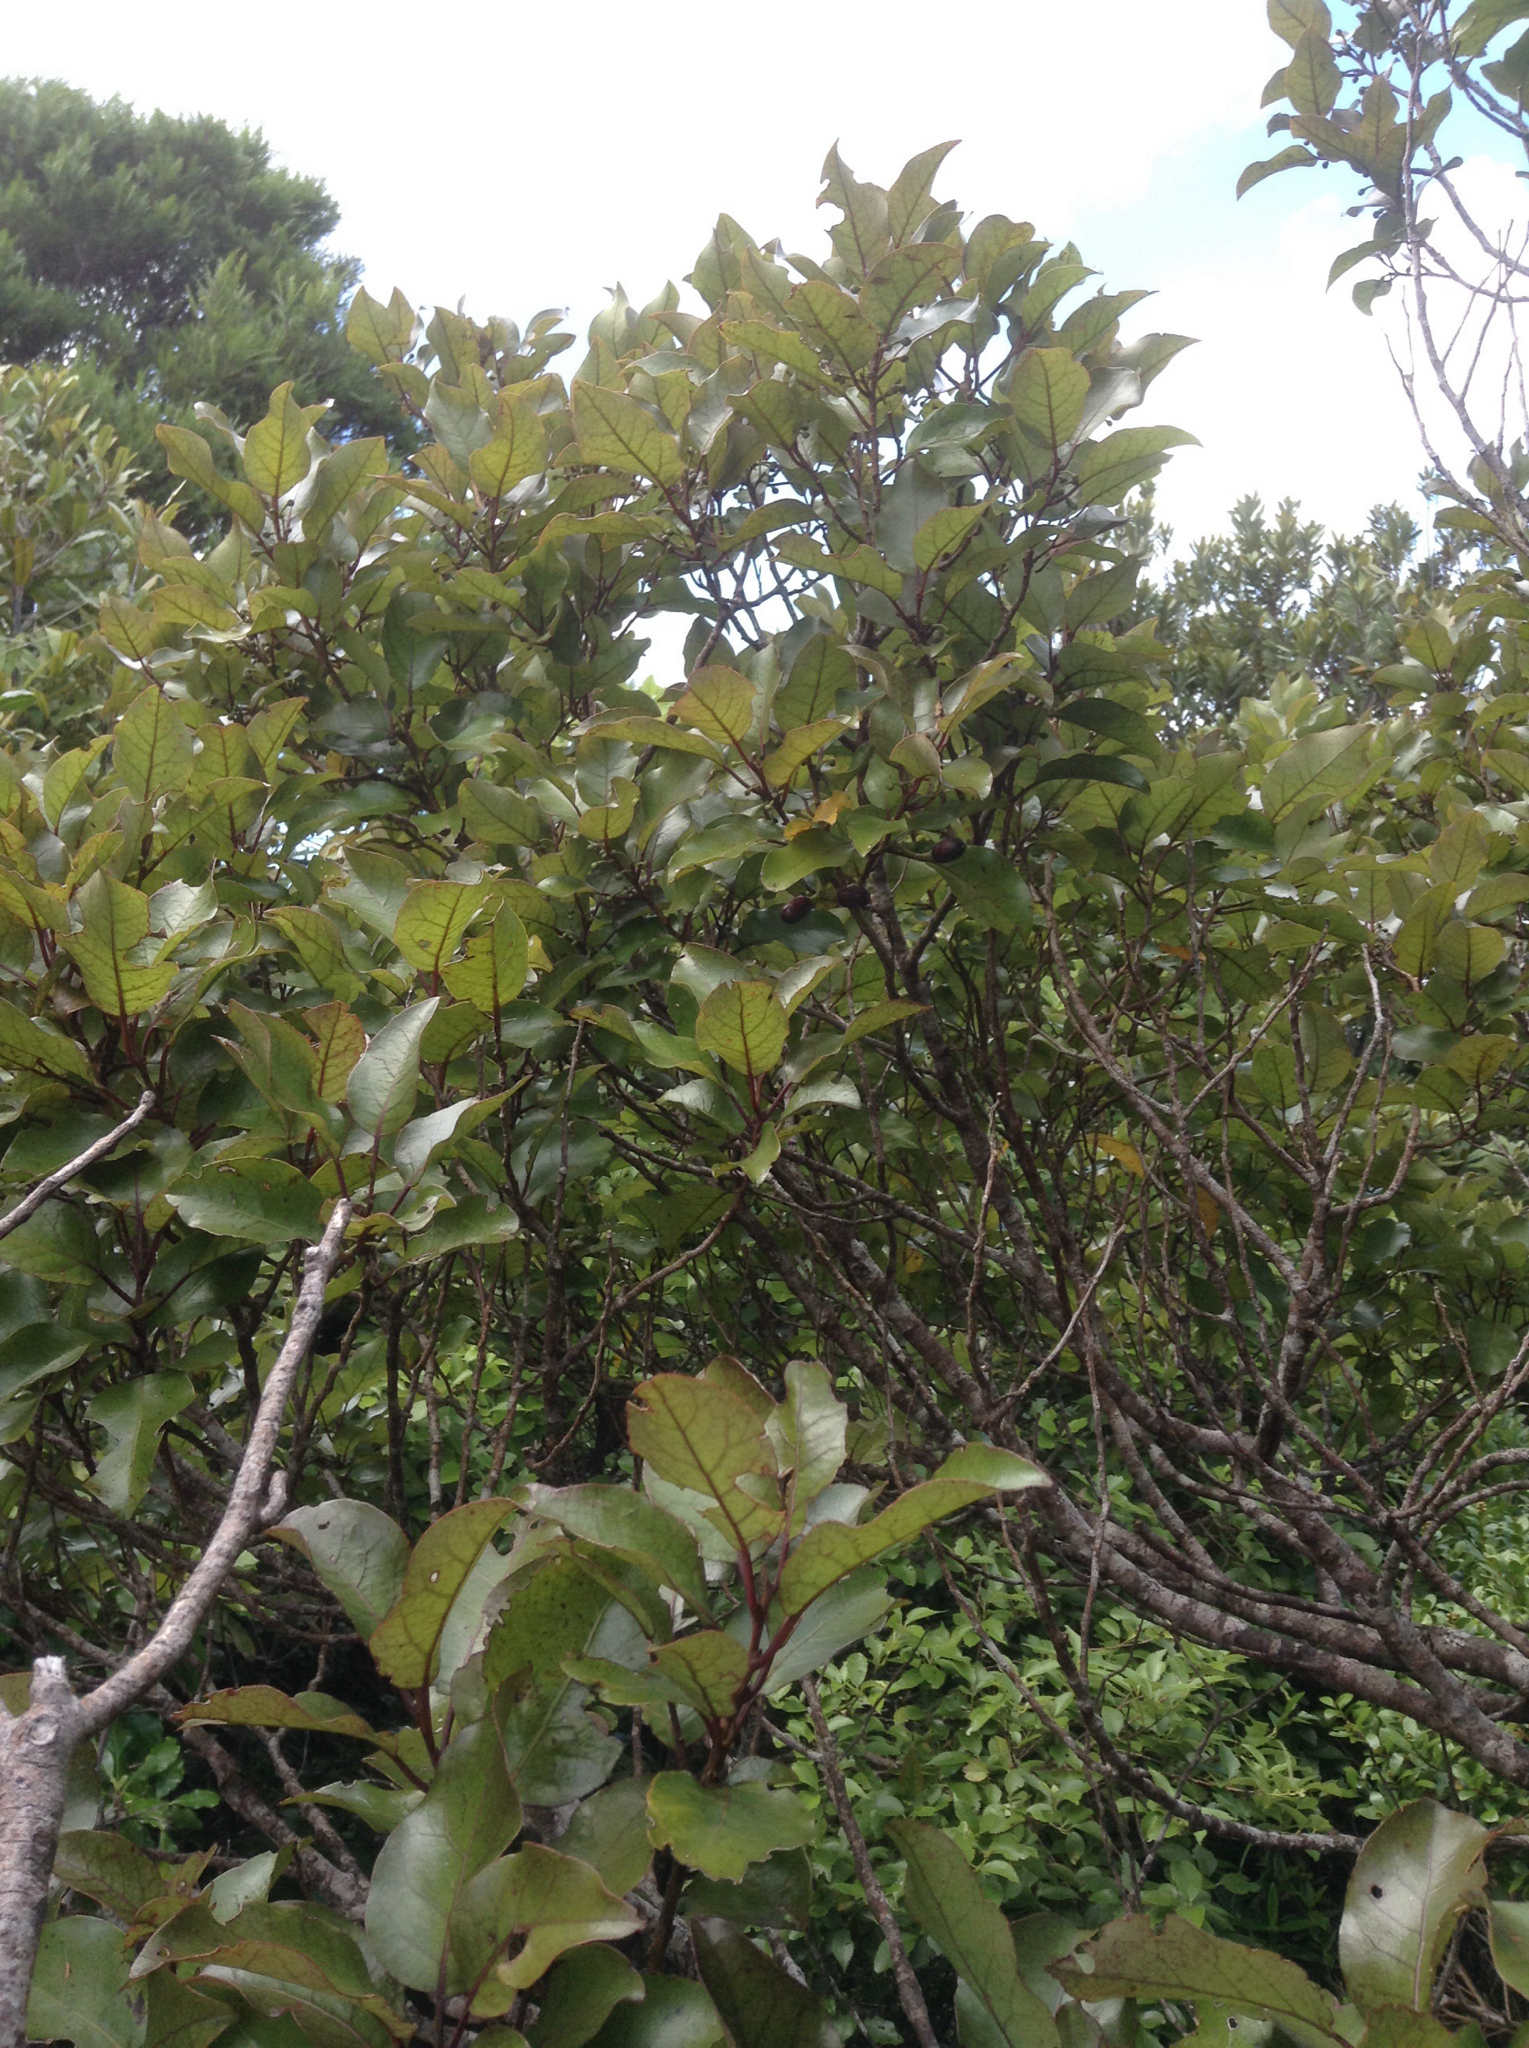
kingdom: Plantae
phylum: Tracheophyta
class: Magnoliopsida
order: Laurales
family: Lauraceae
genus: Litsea
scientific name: Litsea calicaris
